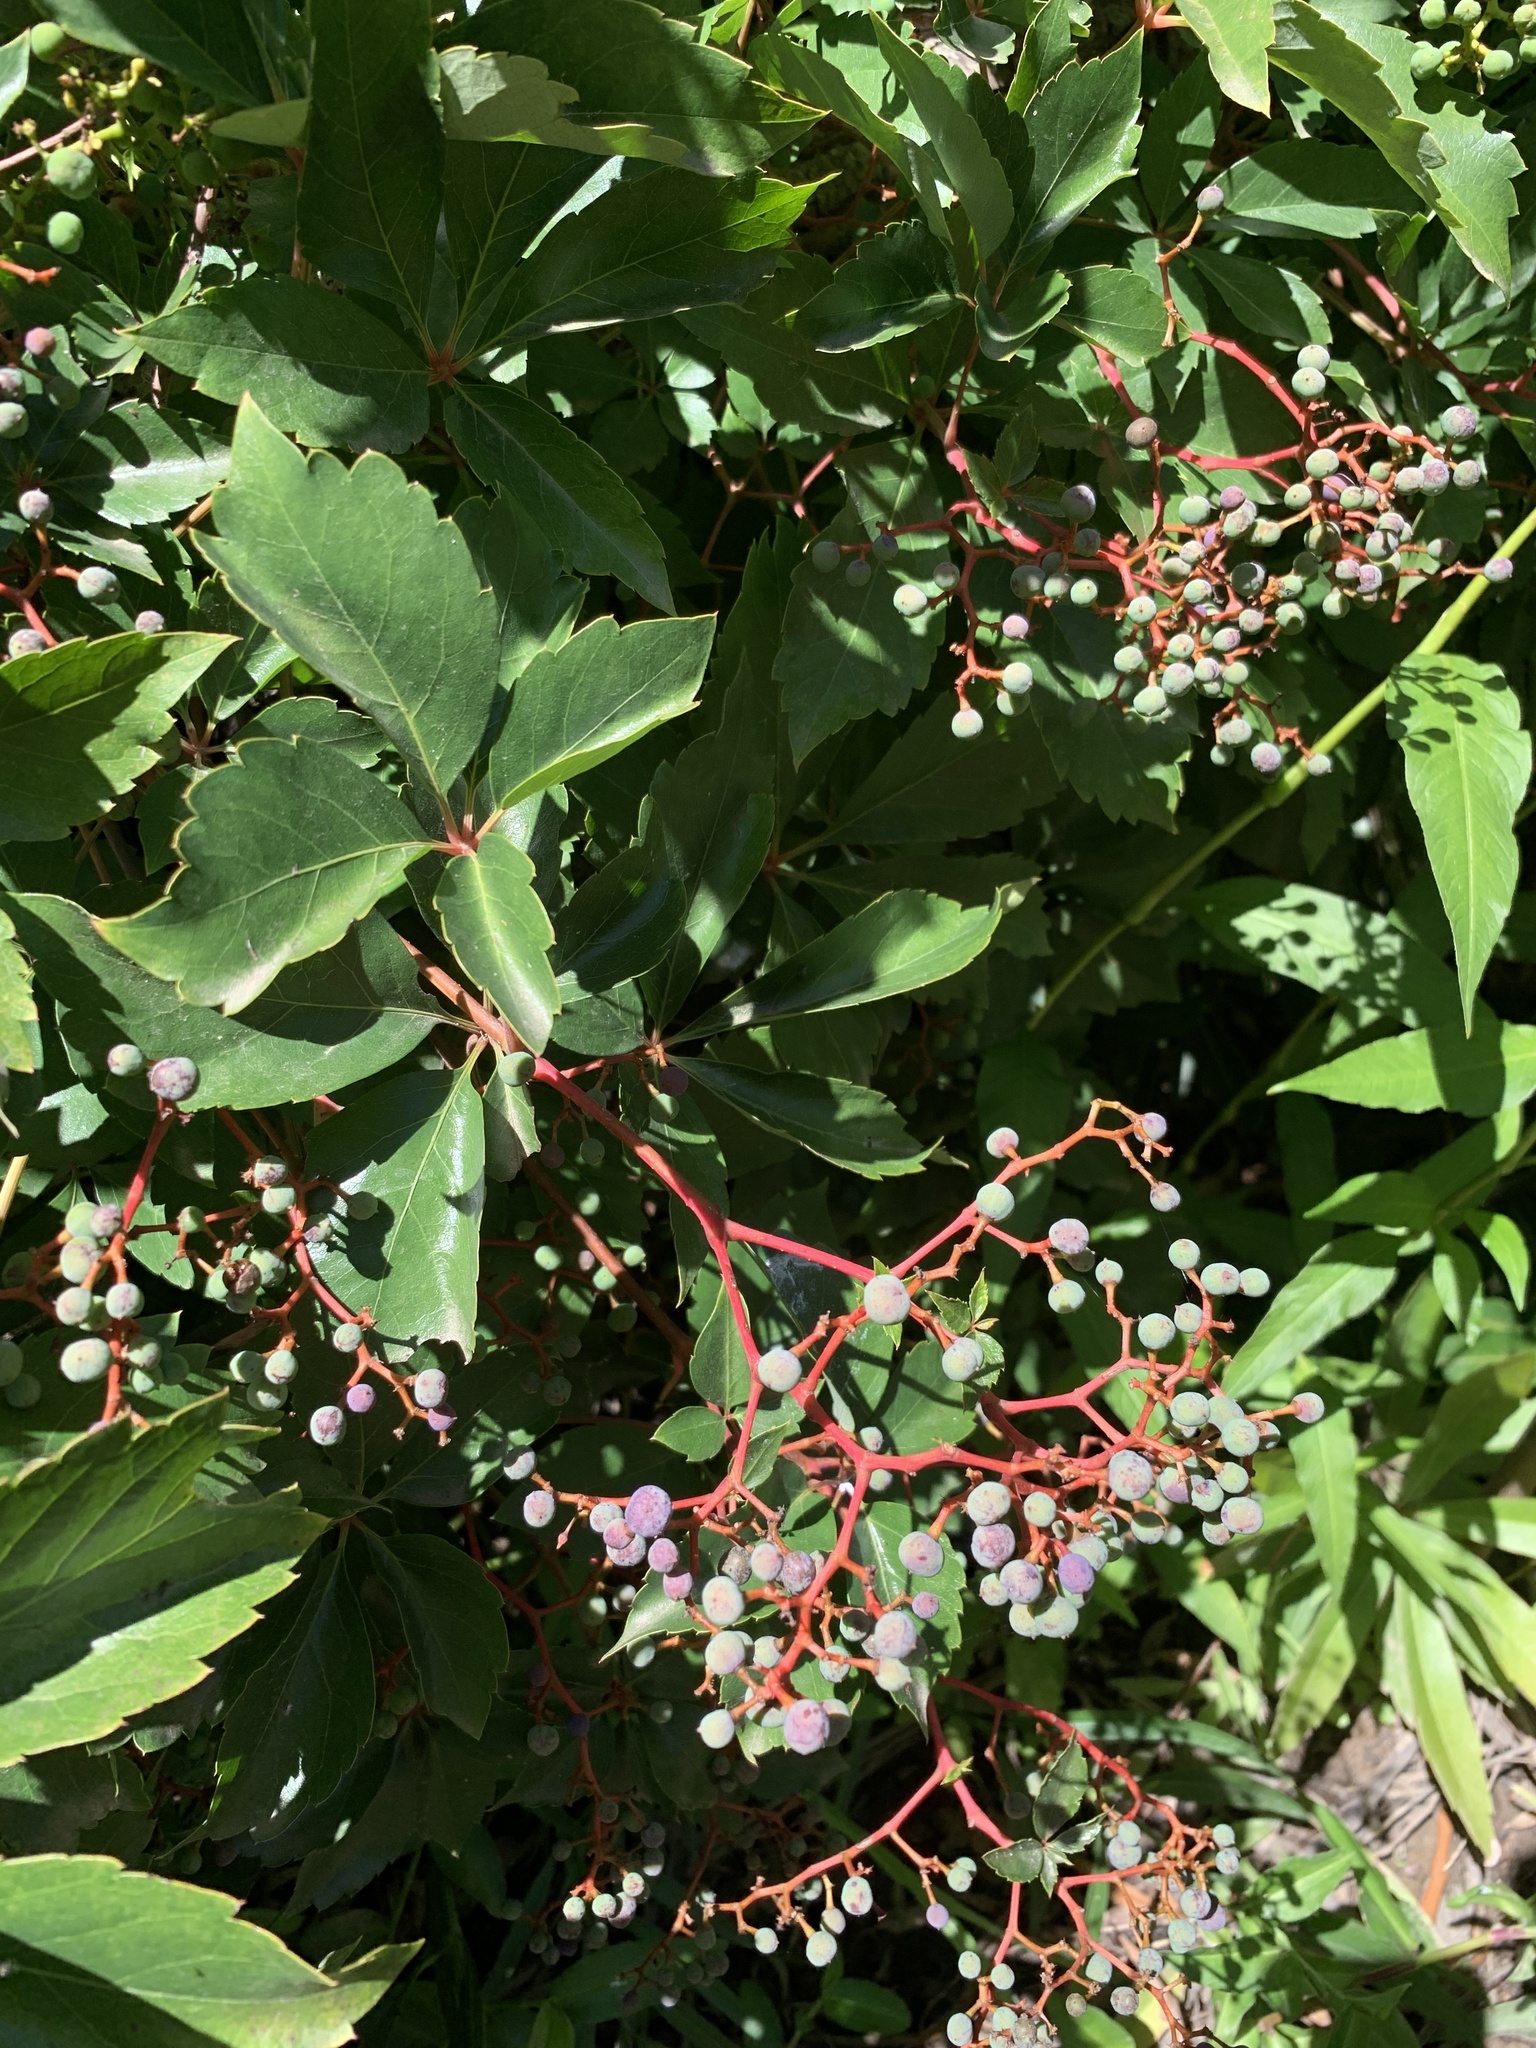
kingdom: Plantae
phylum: Tracheophyta
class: Magnoliopsida
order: Vitales
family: Vitaceae
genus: Parthenocissus
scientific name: Parthenocissus quinquefolia
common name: Virginia-creeper
